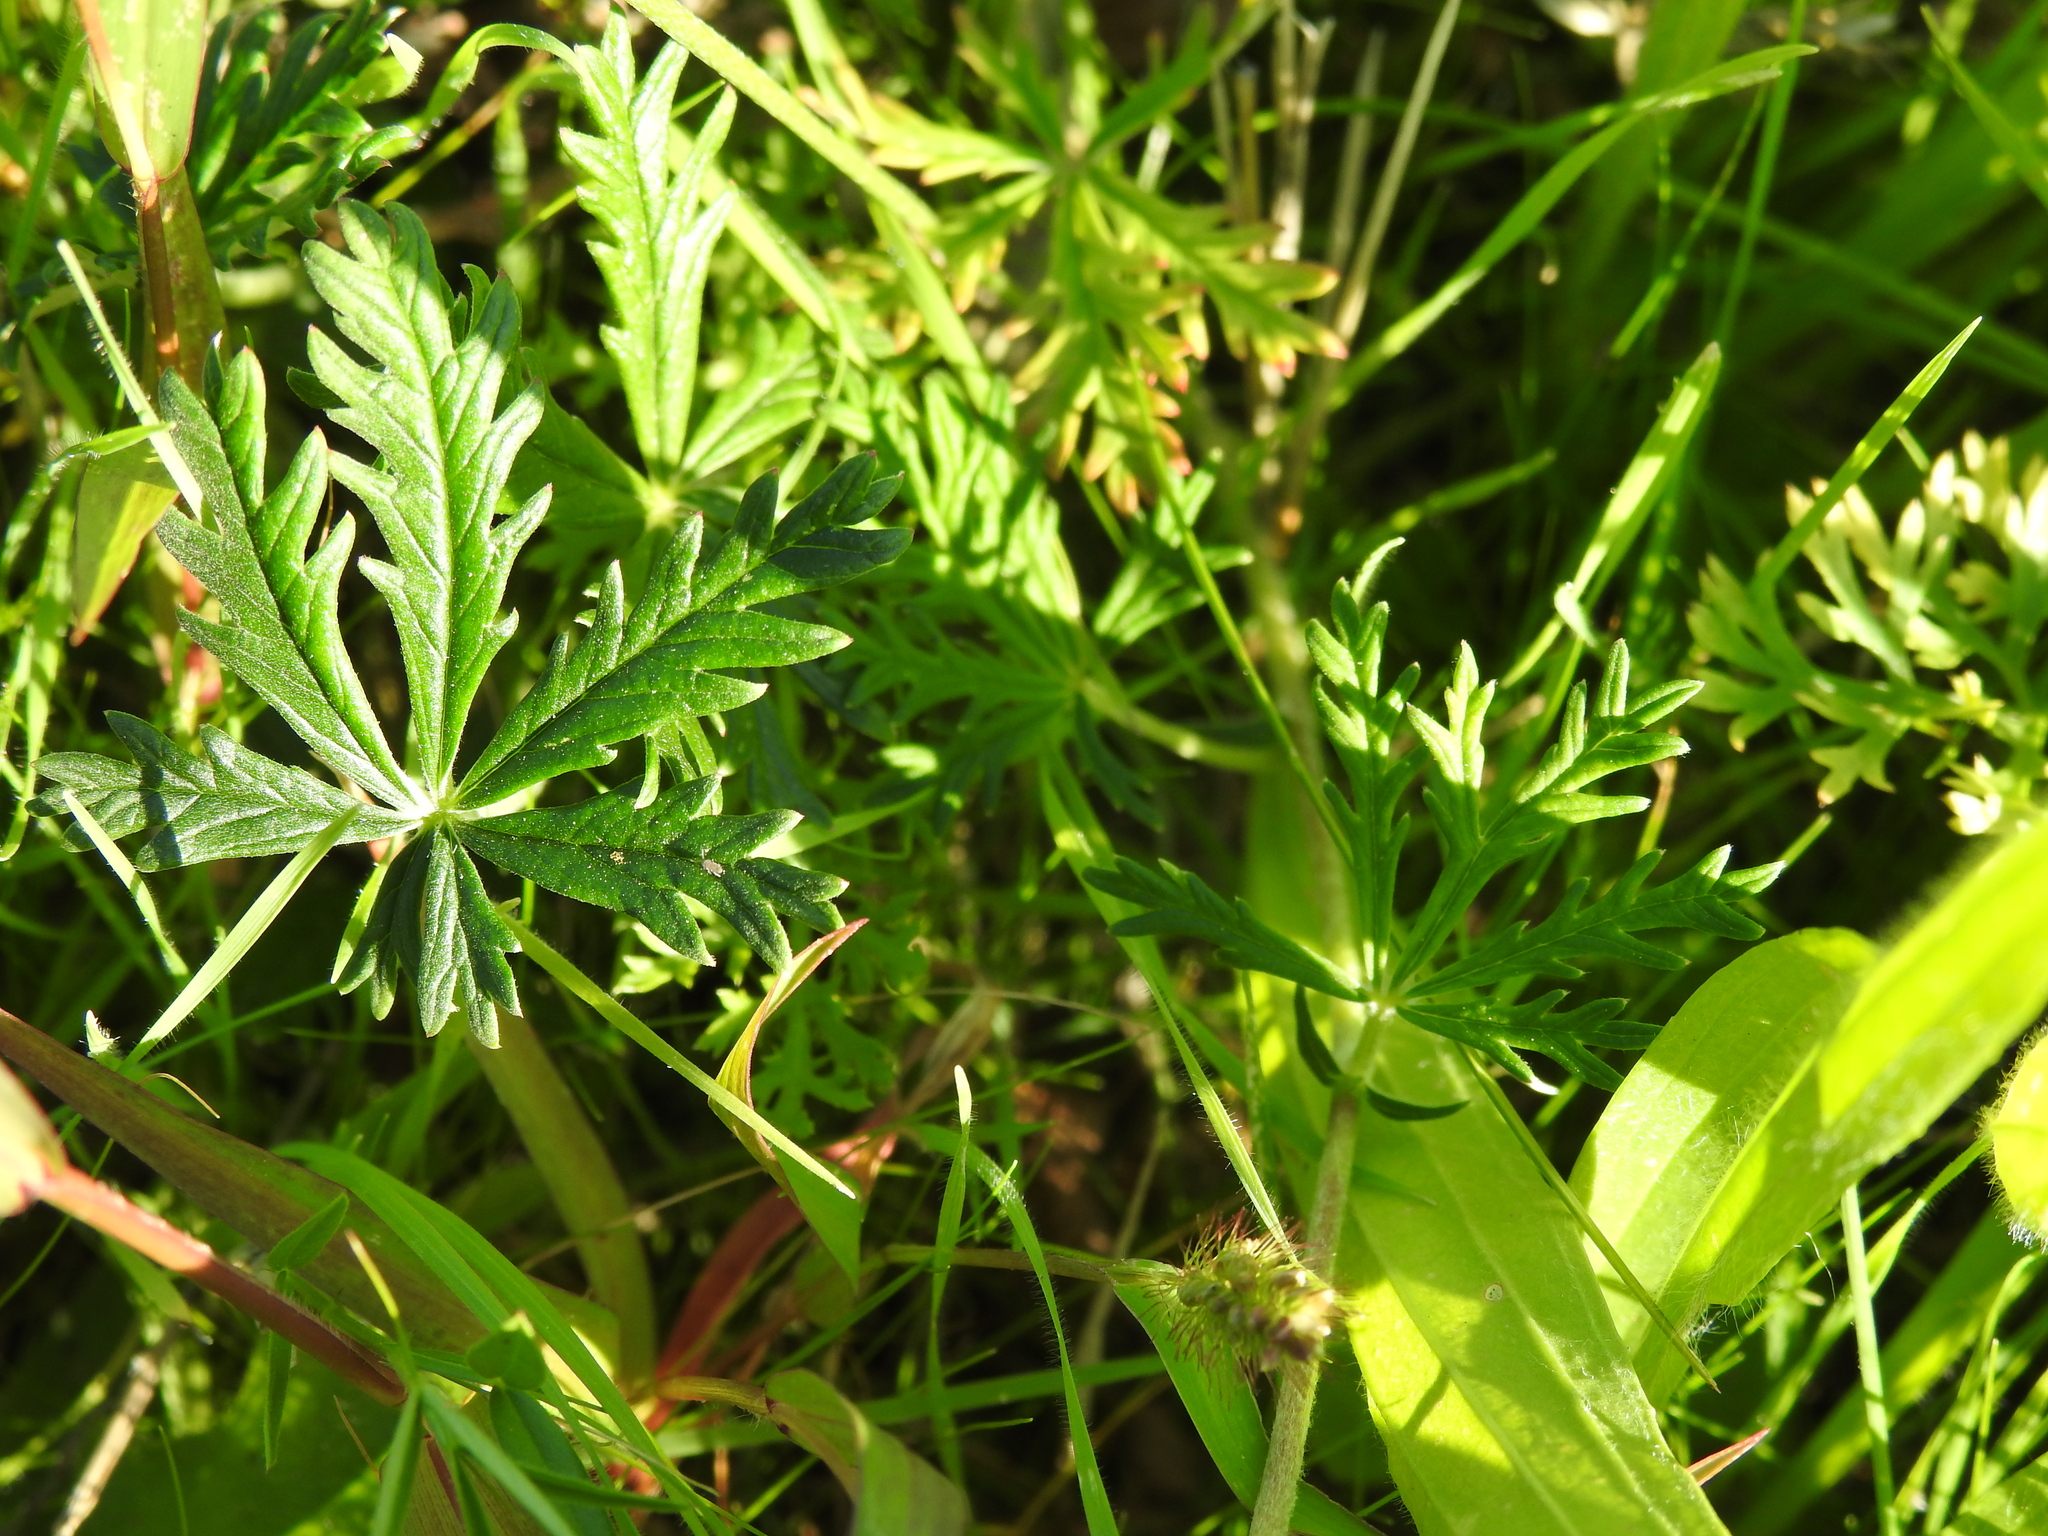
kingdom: Plantae
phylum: Tracheophyta
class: Magnoliopsida
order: Rosales
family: Rosaceae
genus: Potentilla
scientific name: Potentilla argentea
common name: Hoary cinquefoil
